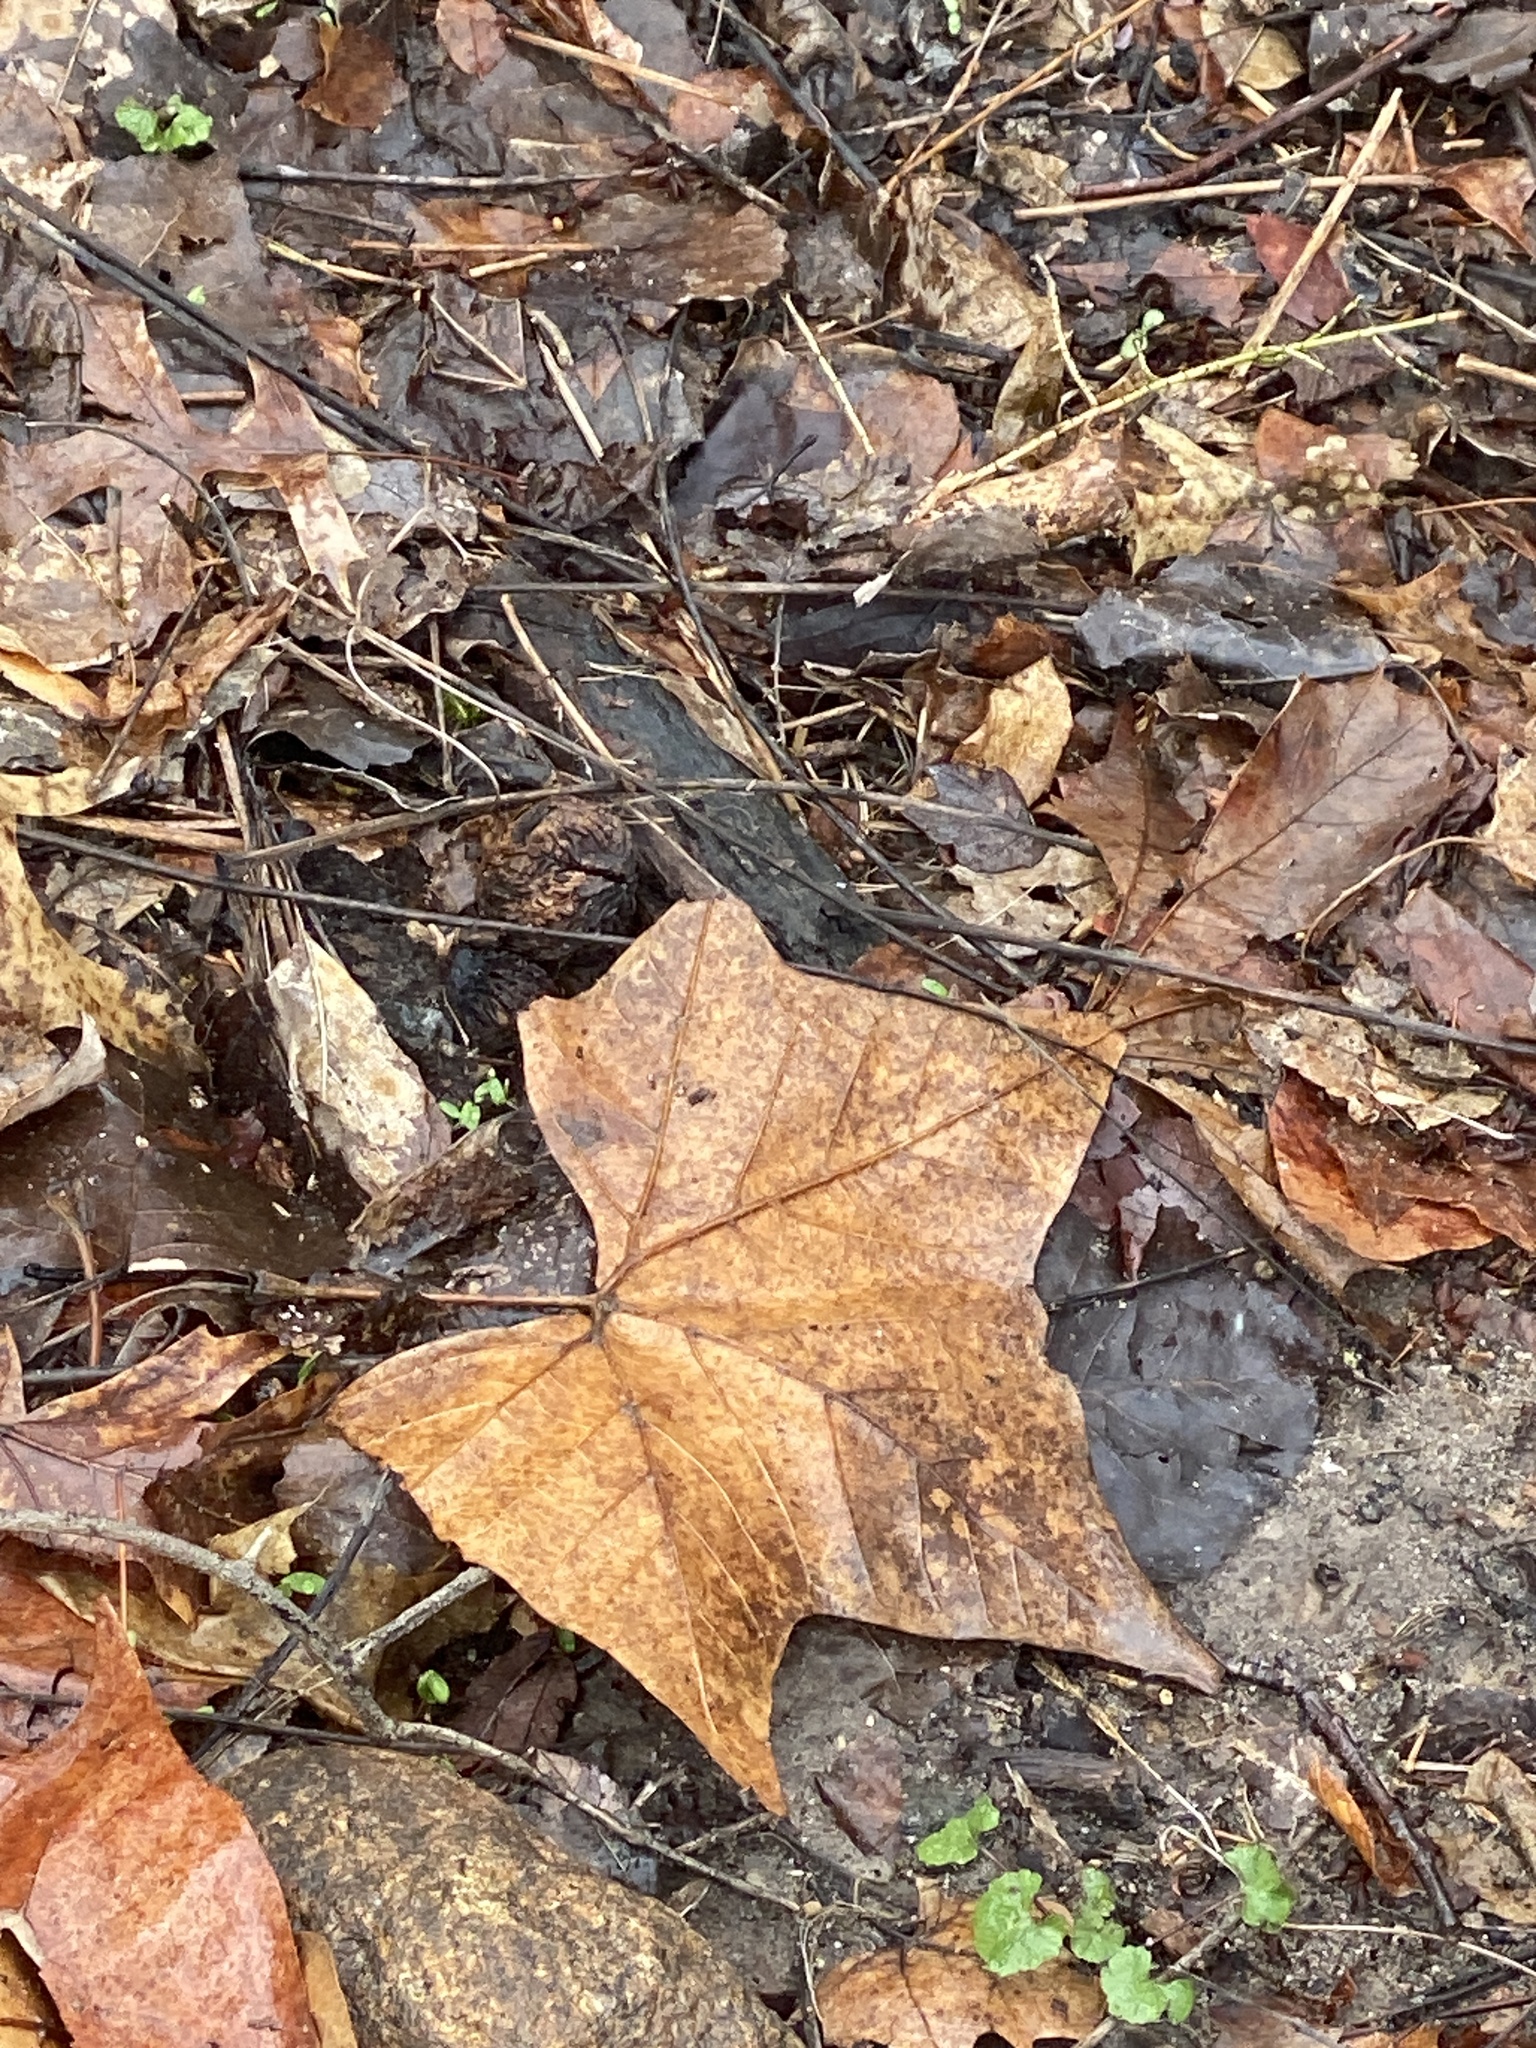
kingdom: Plantae
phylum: Tracheophyta
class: Magnoliopsida
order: Proteales
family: Platanaceae
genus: Platanus
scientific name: Platanus occidentalis
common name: American sycamore
